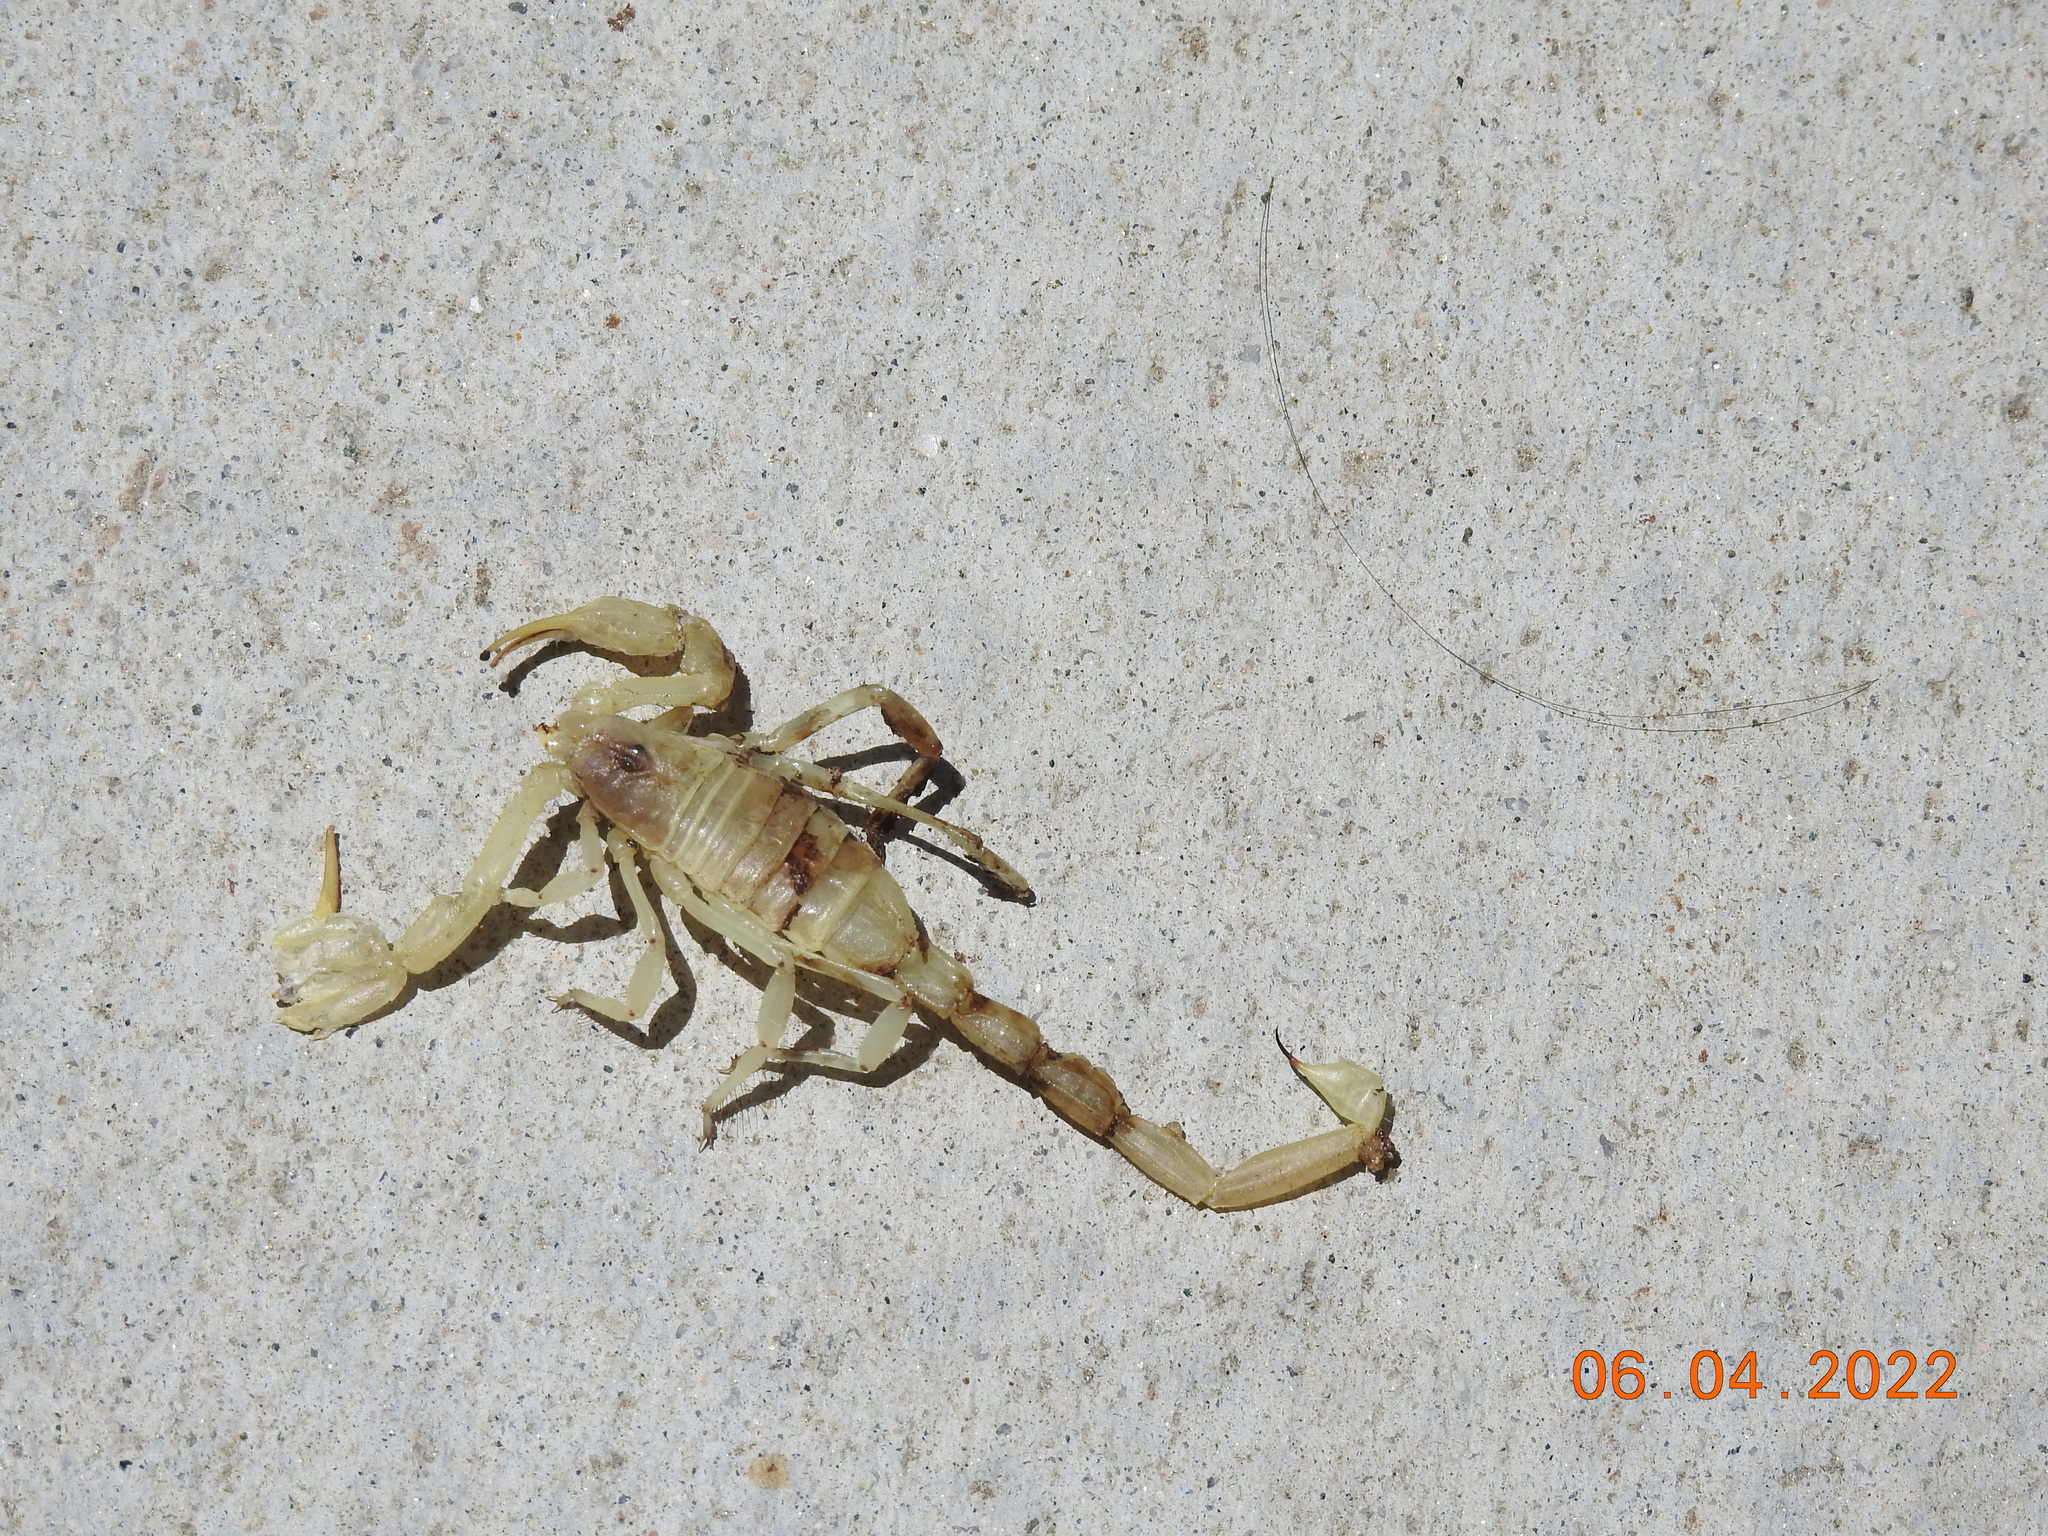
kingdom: Animalia
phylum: Arthropoda
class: Arachnida
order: Scorpiones
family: Vaejovidae
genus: Smeringurus
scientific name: Smeringurus mesaensis
